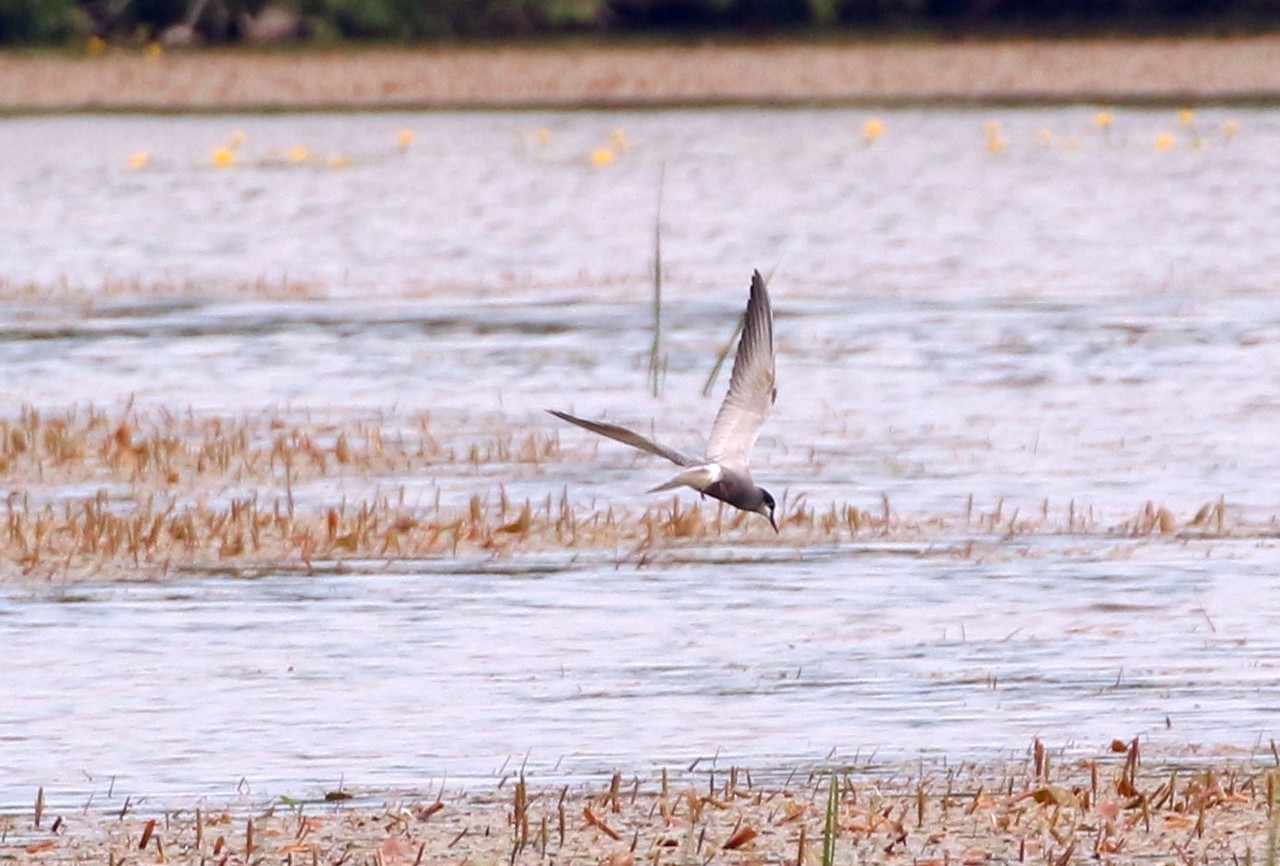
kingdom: Animalia
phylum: Chordata
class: Aves
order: Charadriiformes
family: Laridae
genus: Chlidonias
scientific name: Chlidonias niger
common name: Black tern
